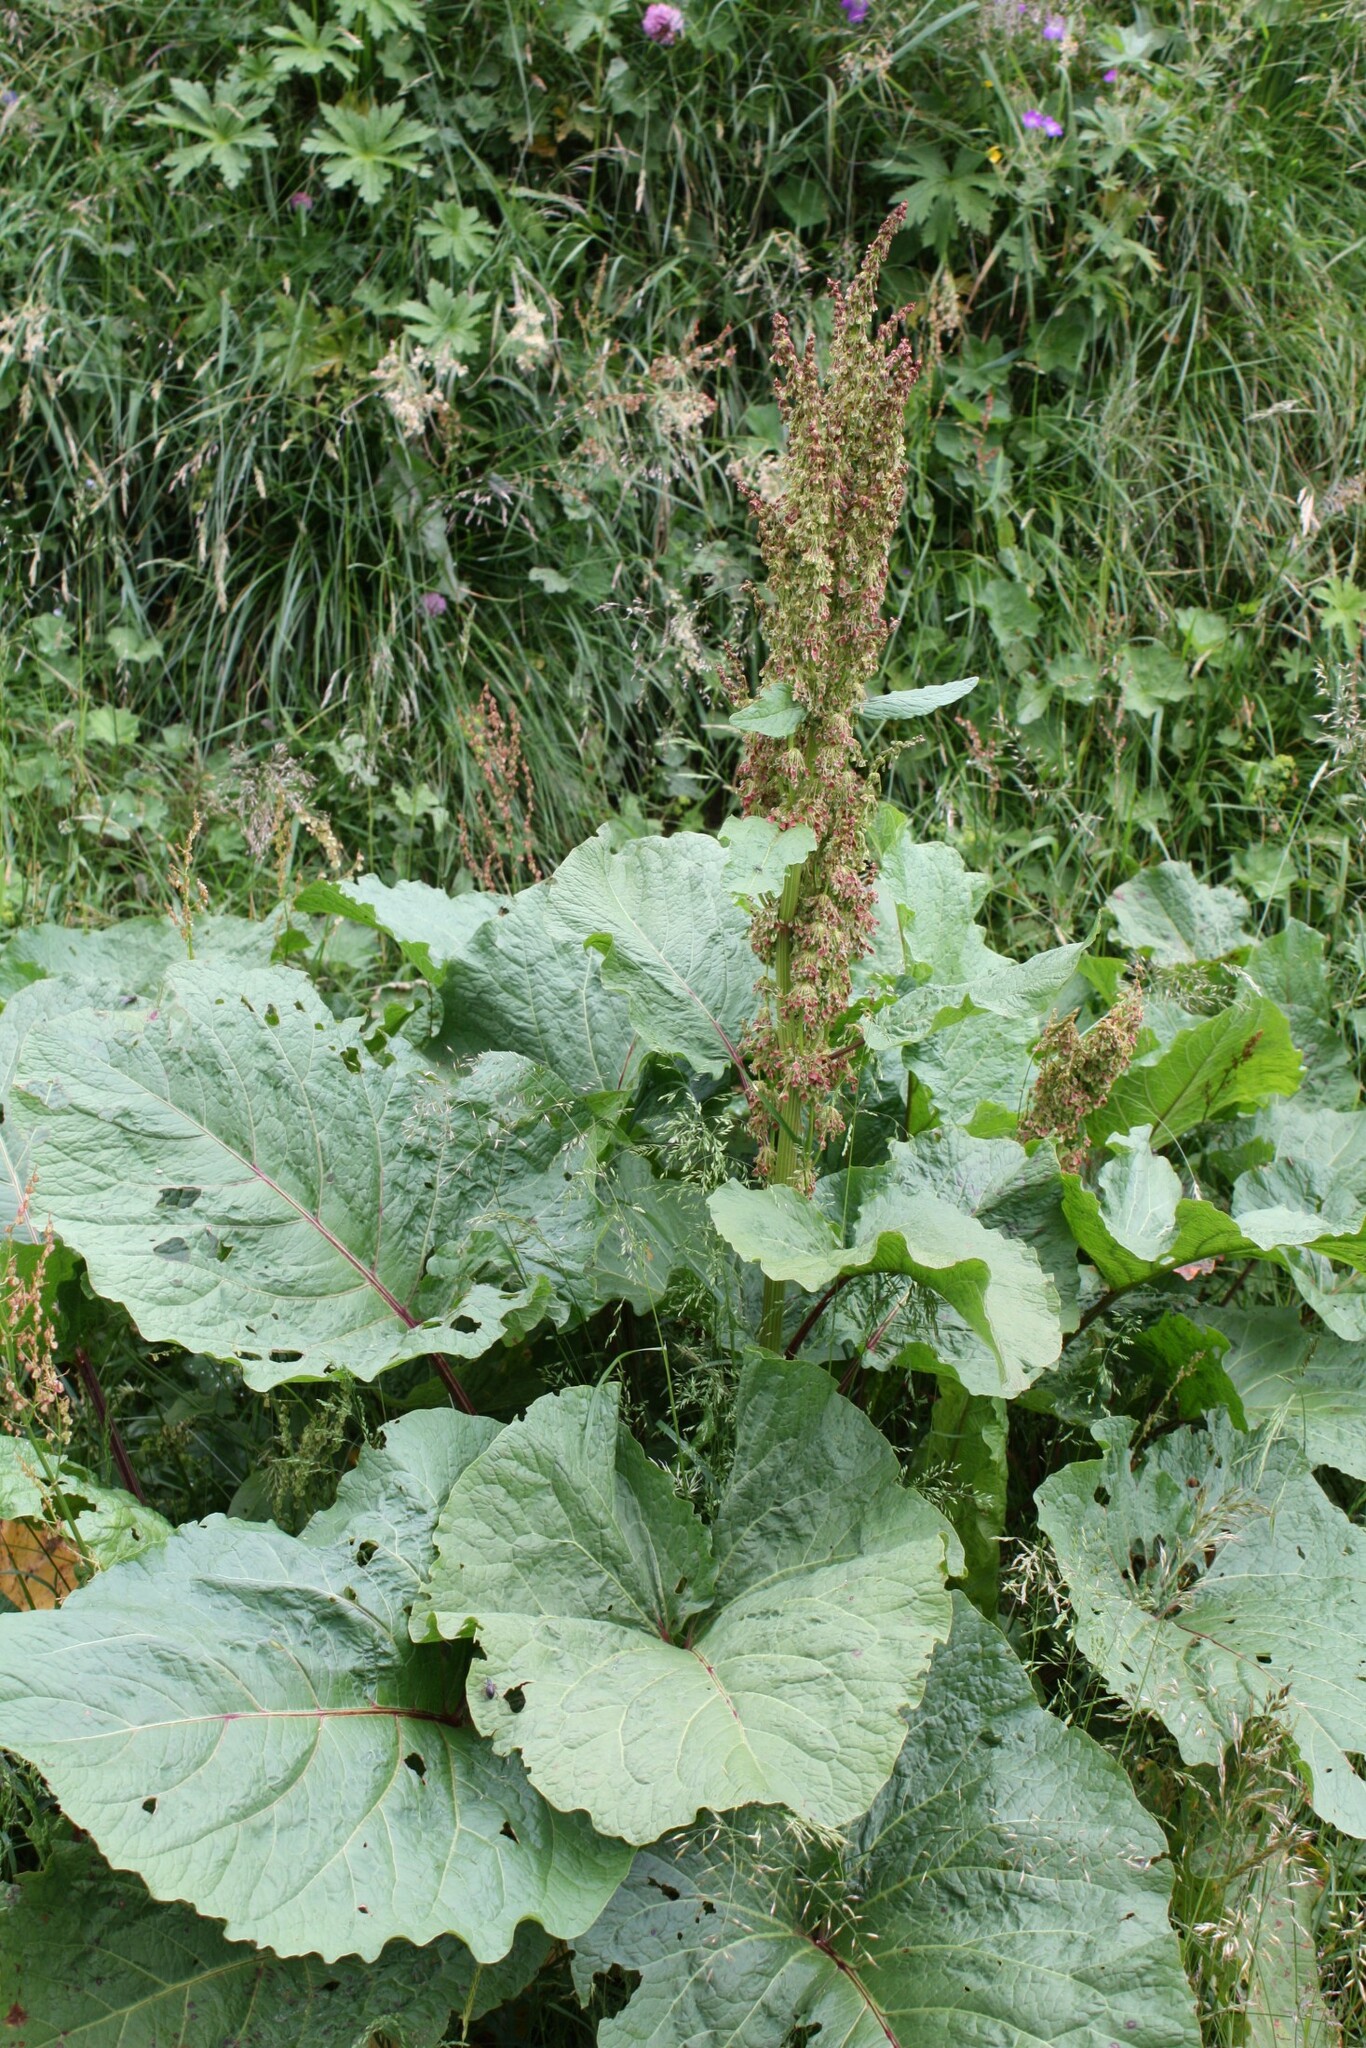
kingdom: Plantae
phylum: Tracheophyta
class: Magnoliopsida
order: Caryophyllales
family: Polygonaceae
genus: Rumex
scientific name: Rumex alpinus
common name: Alpine dock
